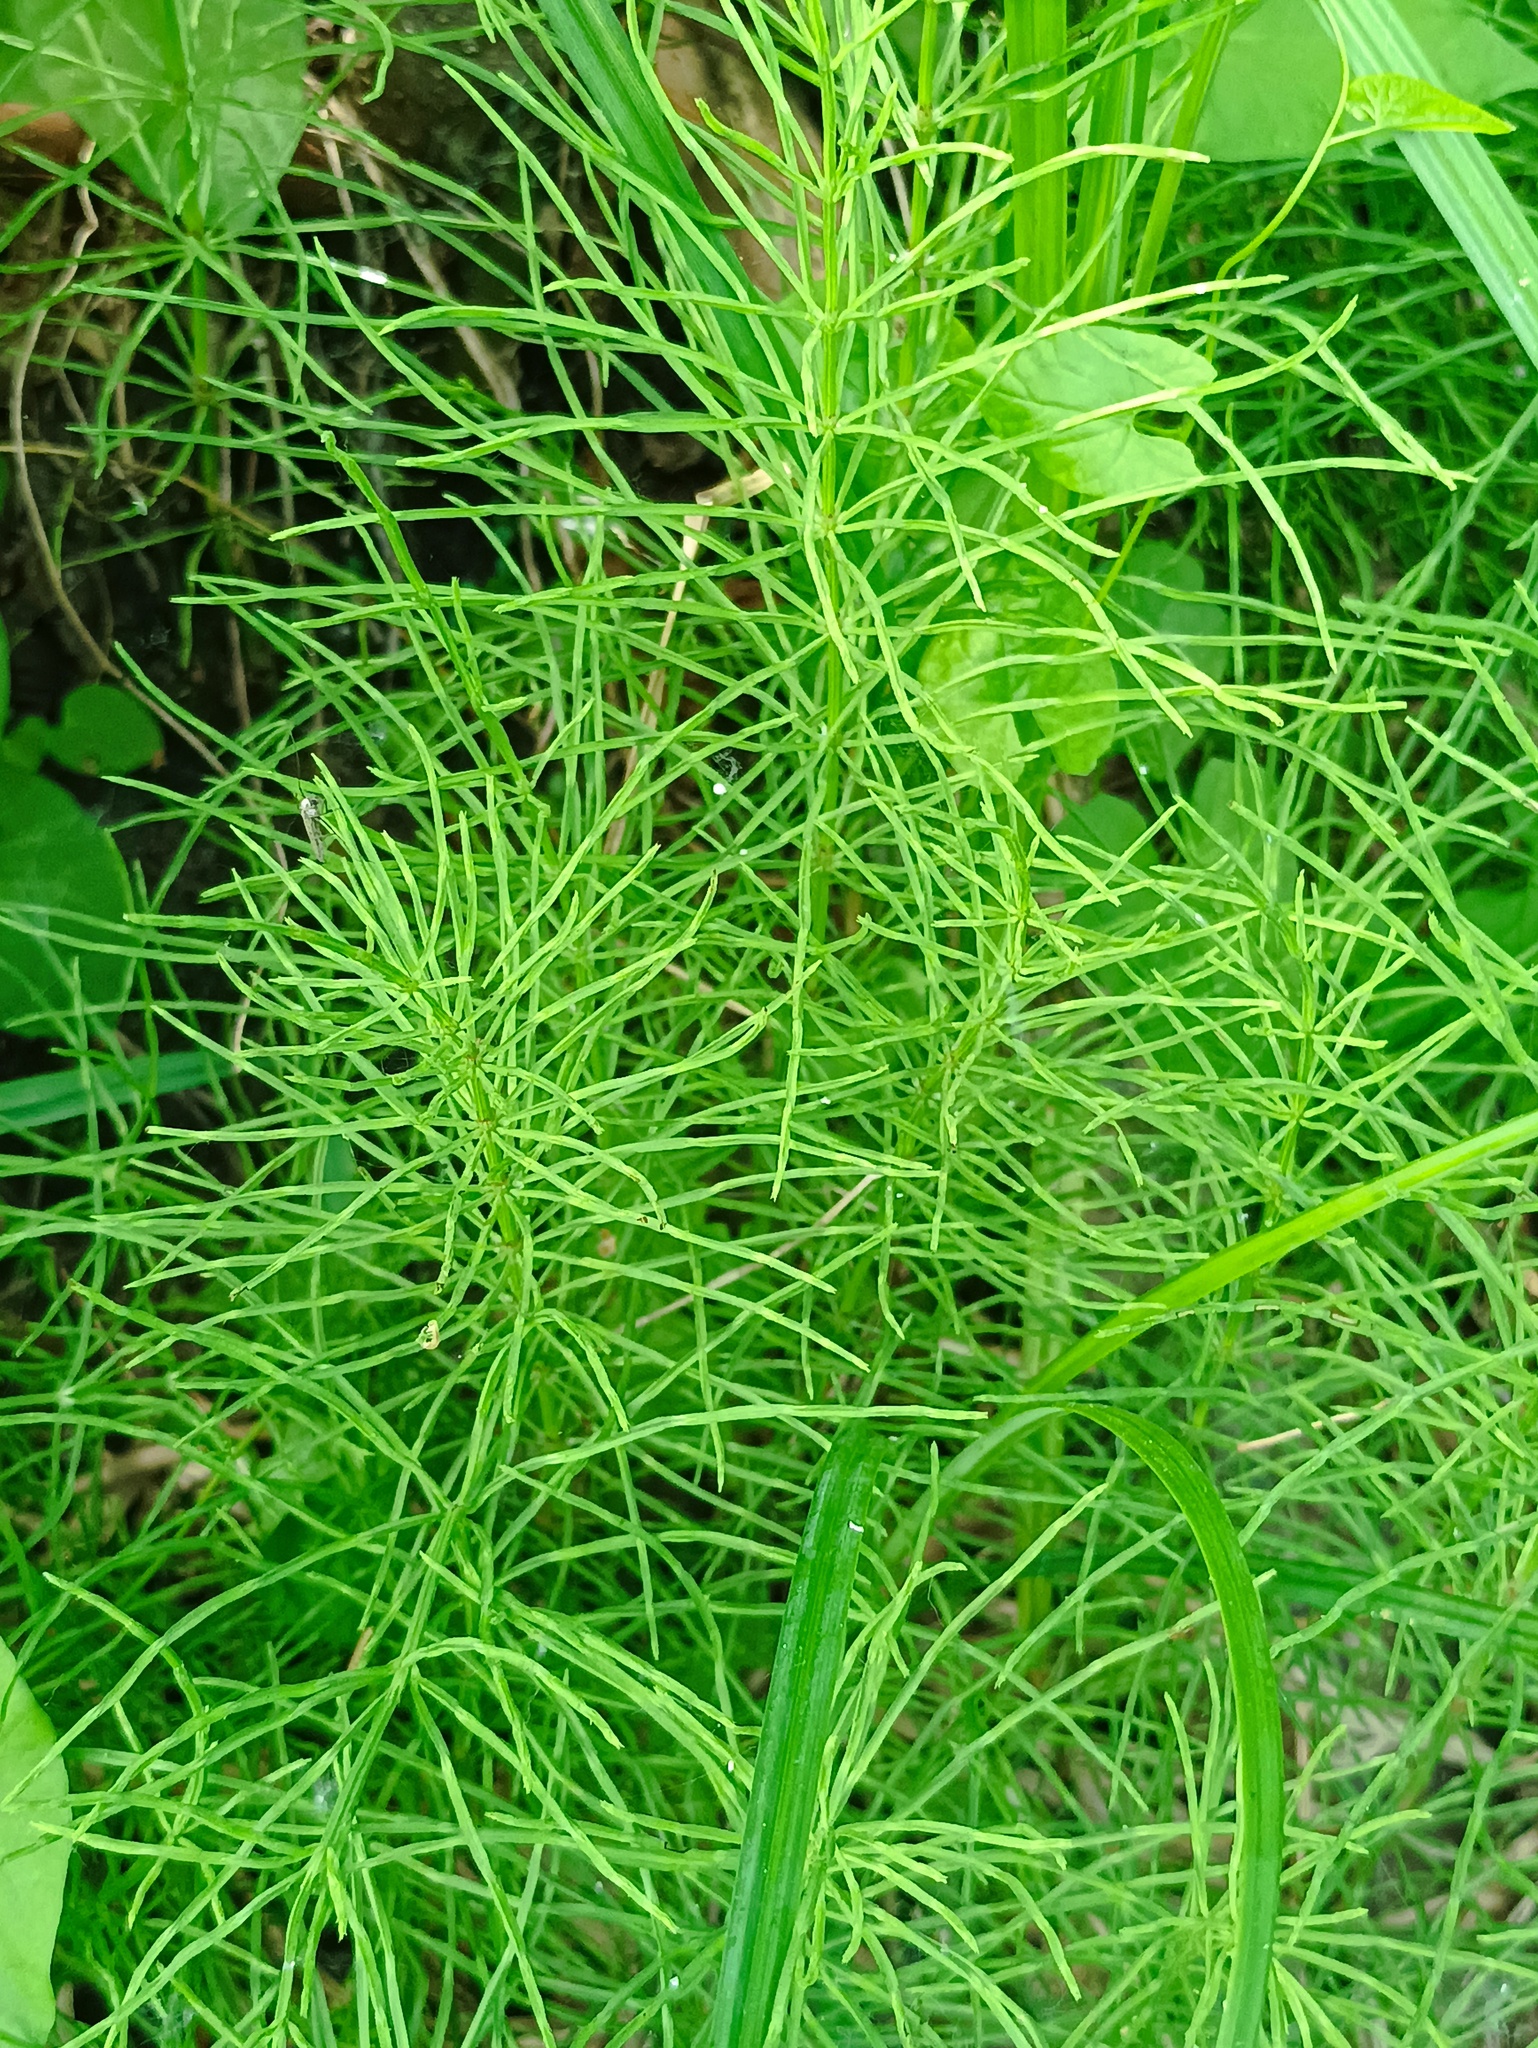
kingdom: Plantae
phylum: Tracheophyta
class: Polypodiopsida
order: Equisetales
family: Equisetaceae
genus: Equisetum
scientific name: Equisetum arvense
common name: Field horsetail
